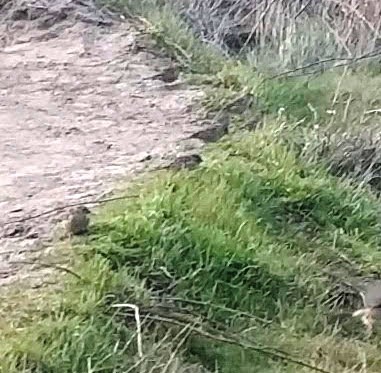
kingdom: Animalia
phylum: Chordata
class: Aves
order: Passeriformes
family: Passerellidae
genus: Zonotrichia
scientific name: Zonotrichia atricapilla
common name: Golden-crowned sparrow
